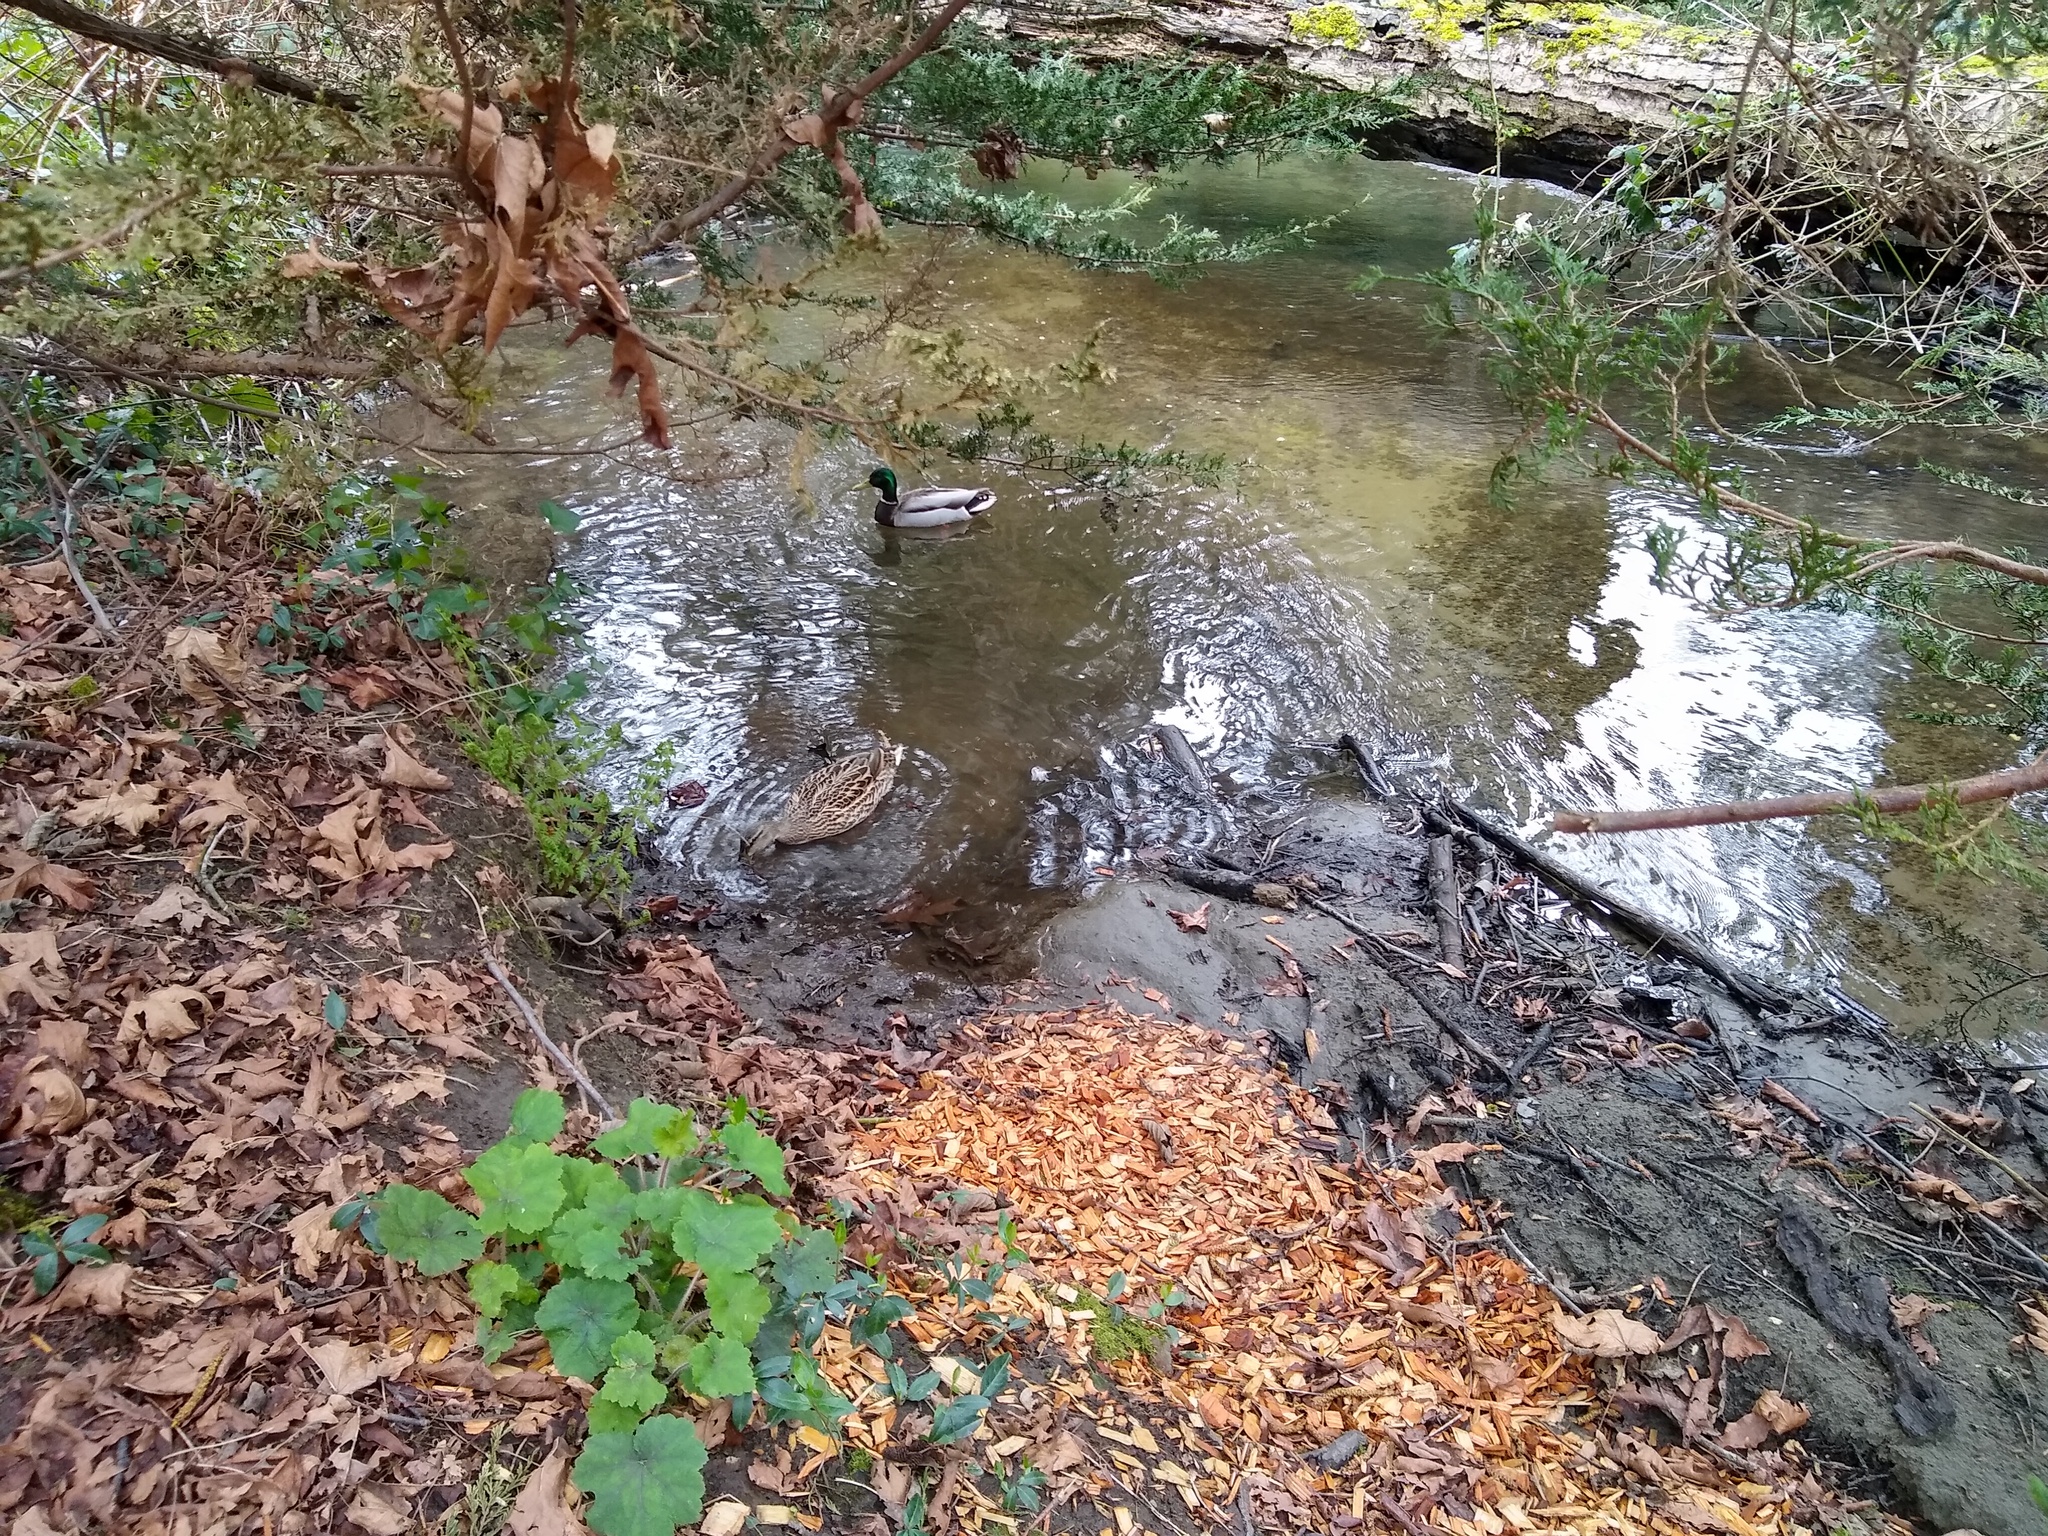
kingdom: Animalia
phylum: Chordata
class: Aves
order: Anseriformes
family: Anatidae
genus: Anas
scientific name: Anas platyrhynchos
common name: Mallard
